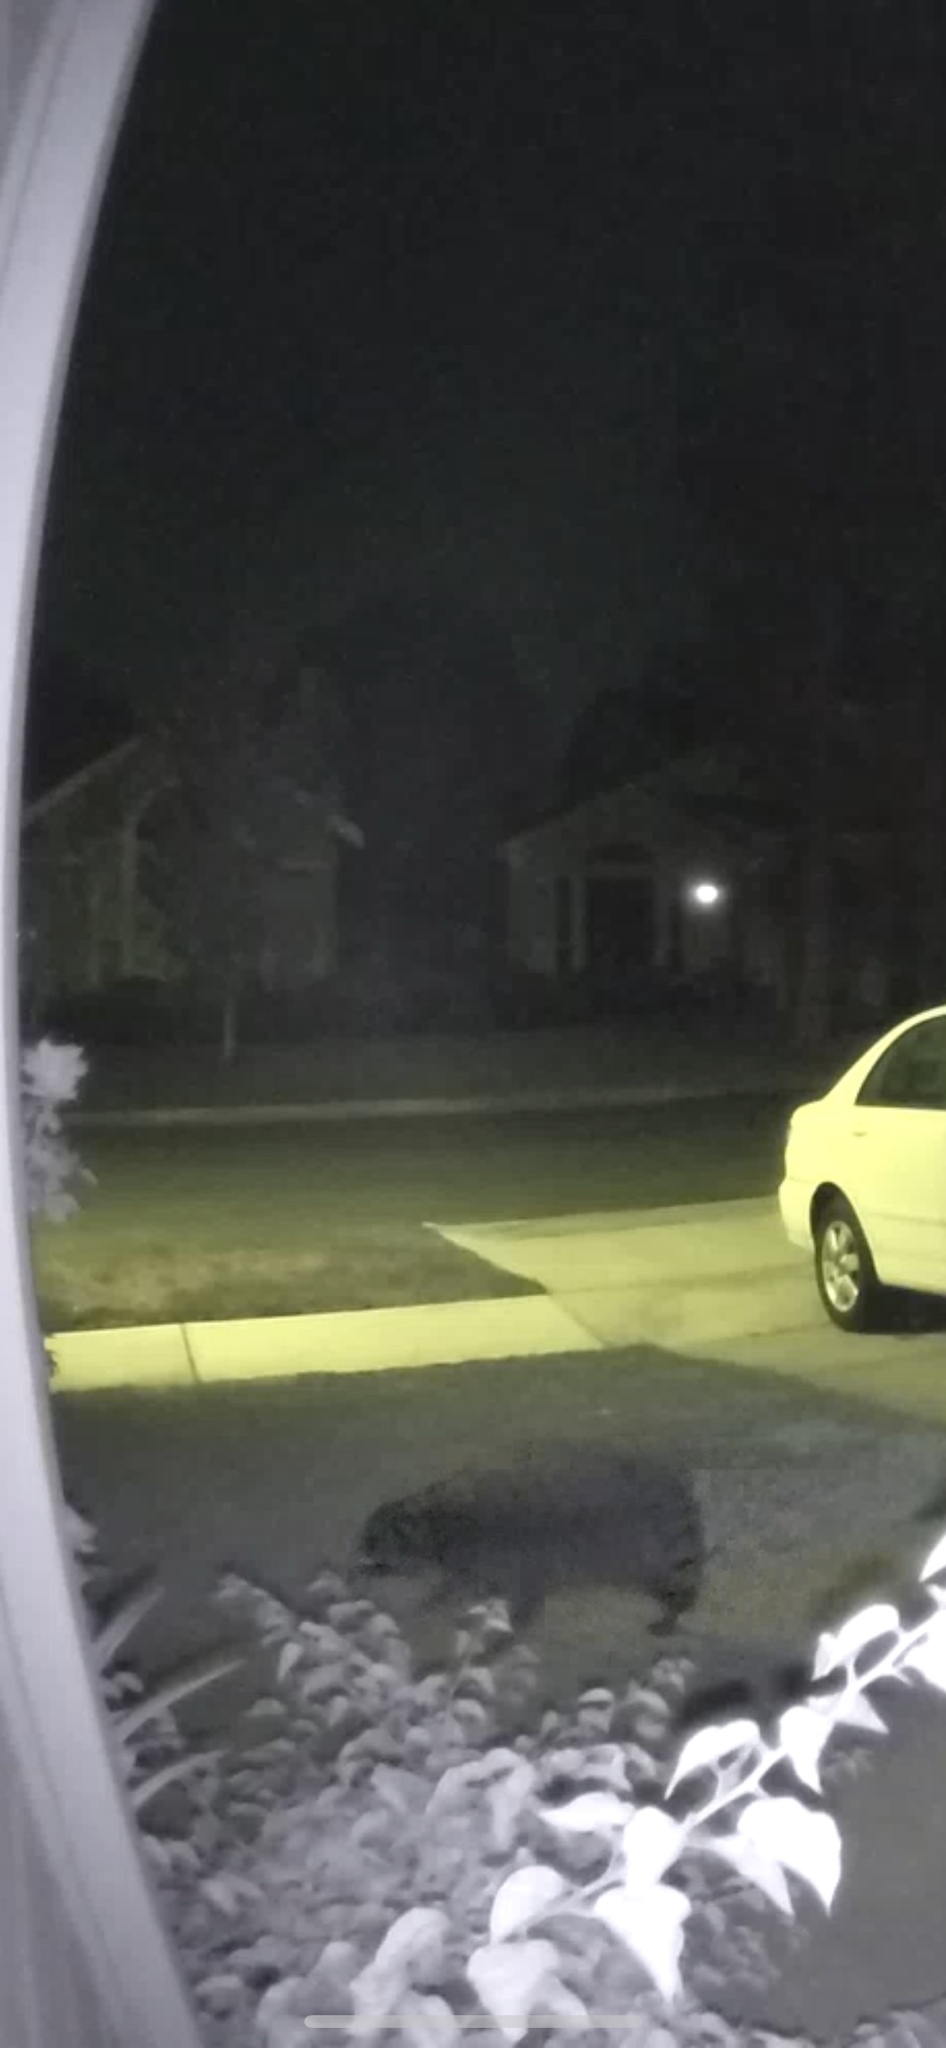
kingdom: Animalia
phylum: Chordata
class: Mammalia
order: Carnivora
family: Procyonidae
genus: Procyon
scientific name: Procyon lotor
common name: Raccoon
